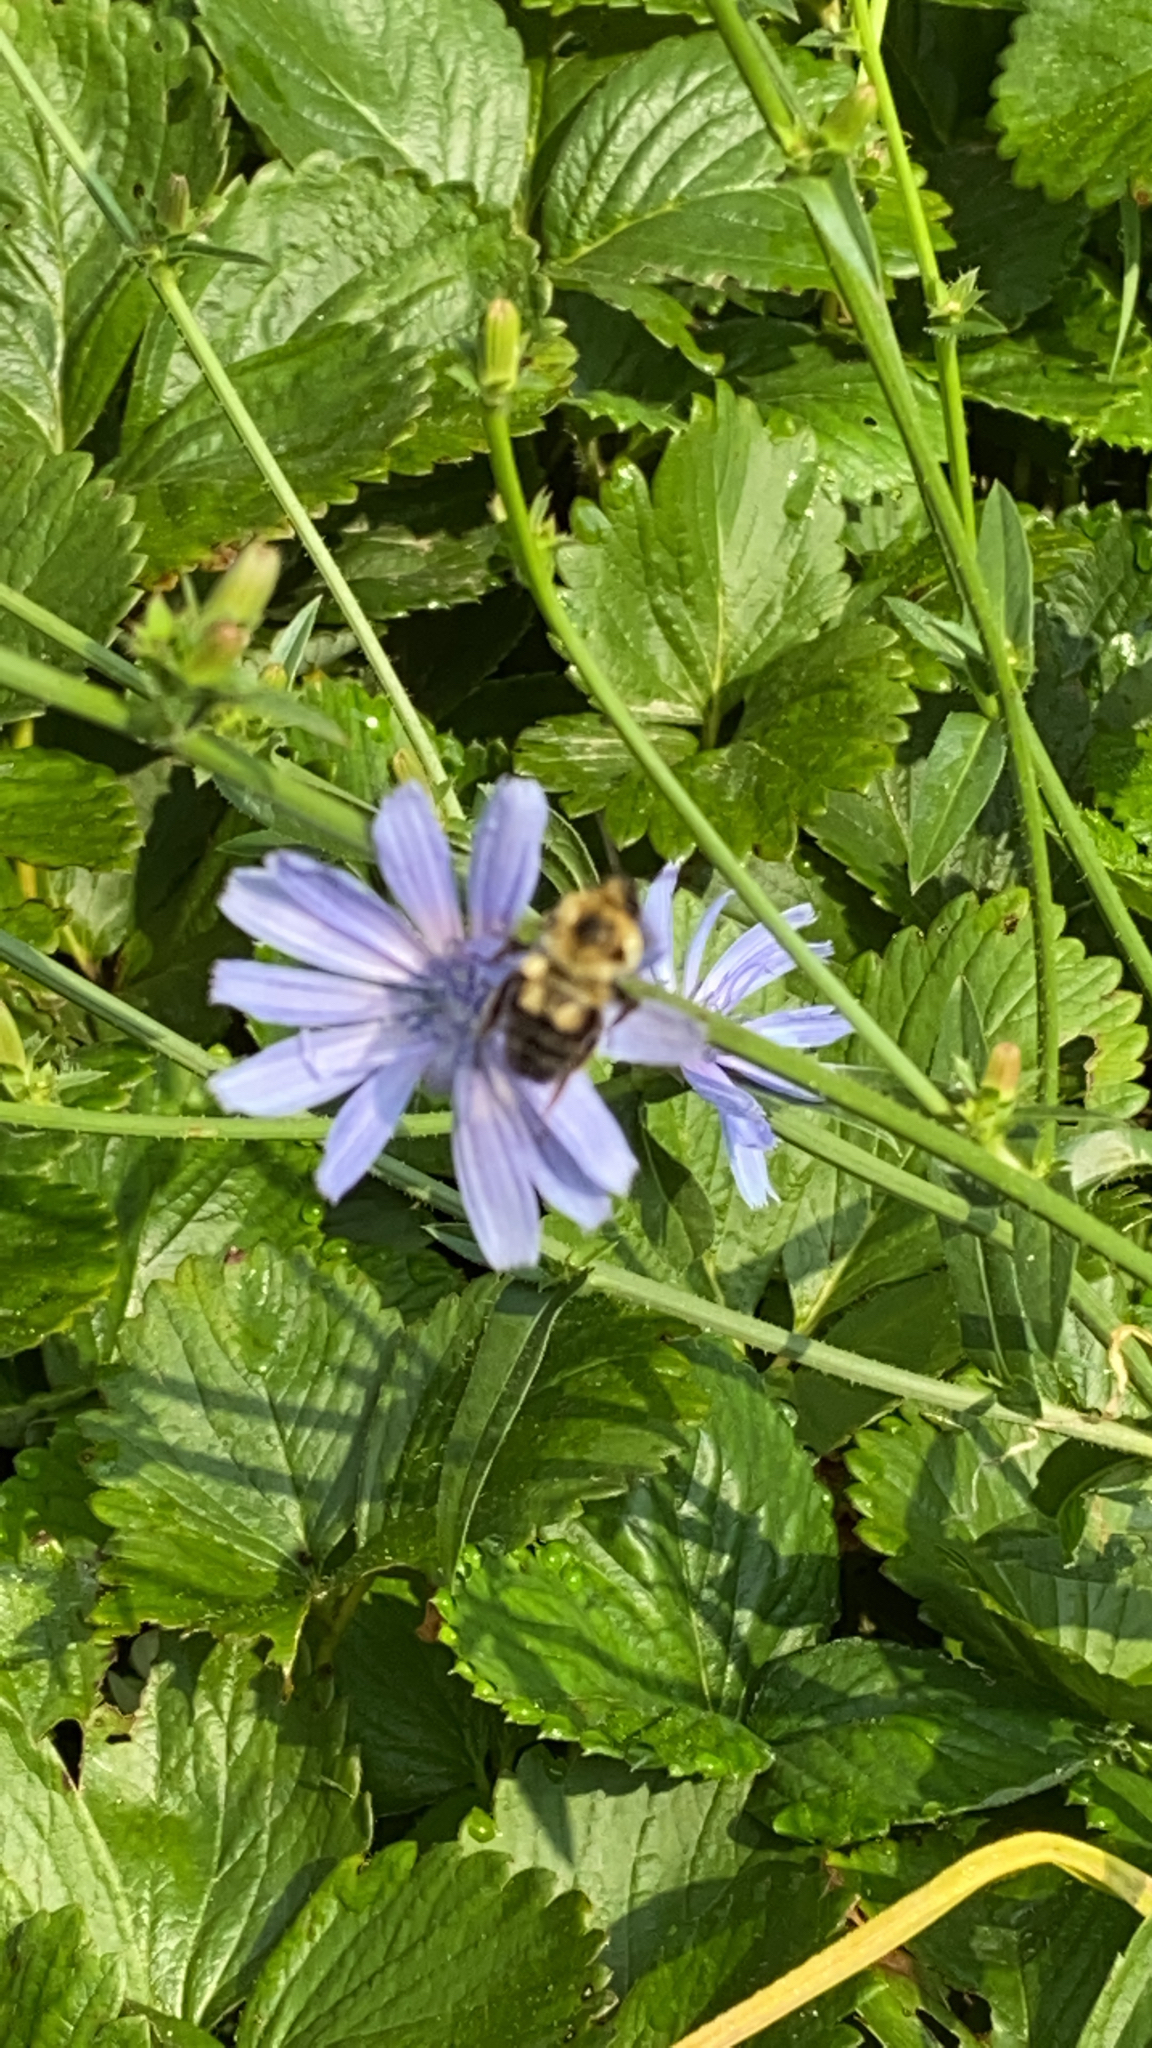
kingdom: Animalia
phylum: Arthropoda
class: Insecta
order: Hymenoptera
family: Apidae
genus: Bombus
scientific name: Bombus bimaculatus
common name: Two-spotted bumble bee
